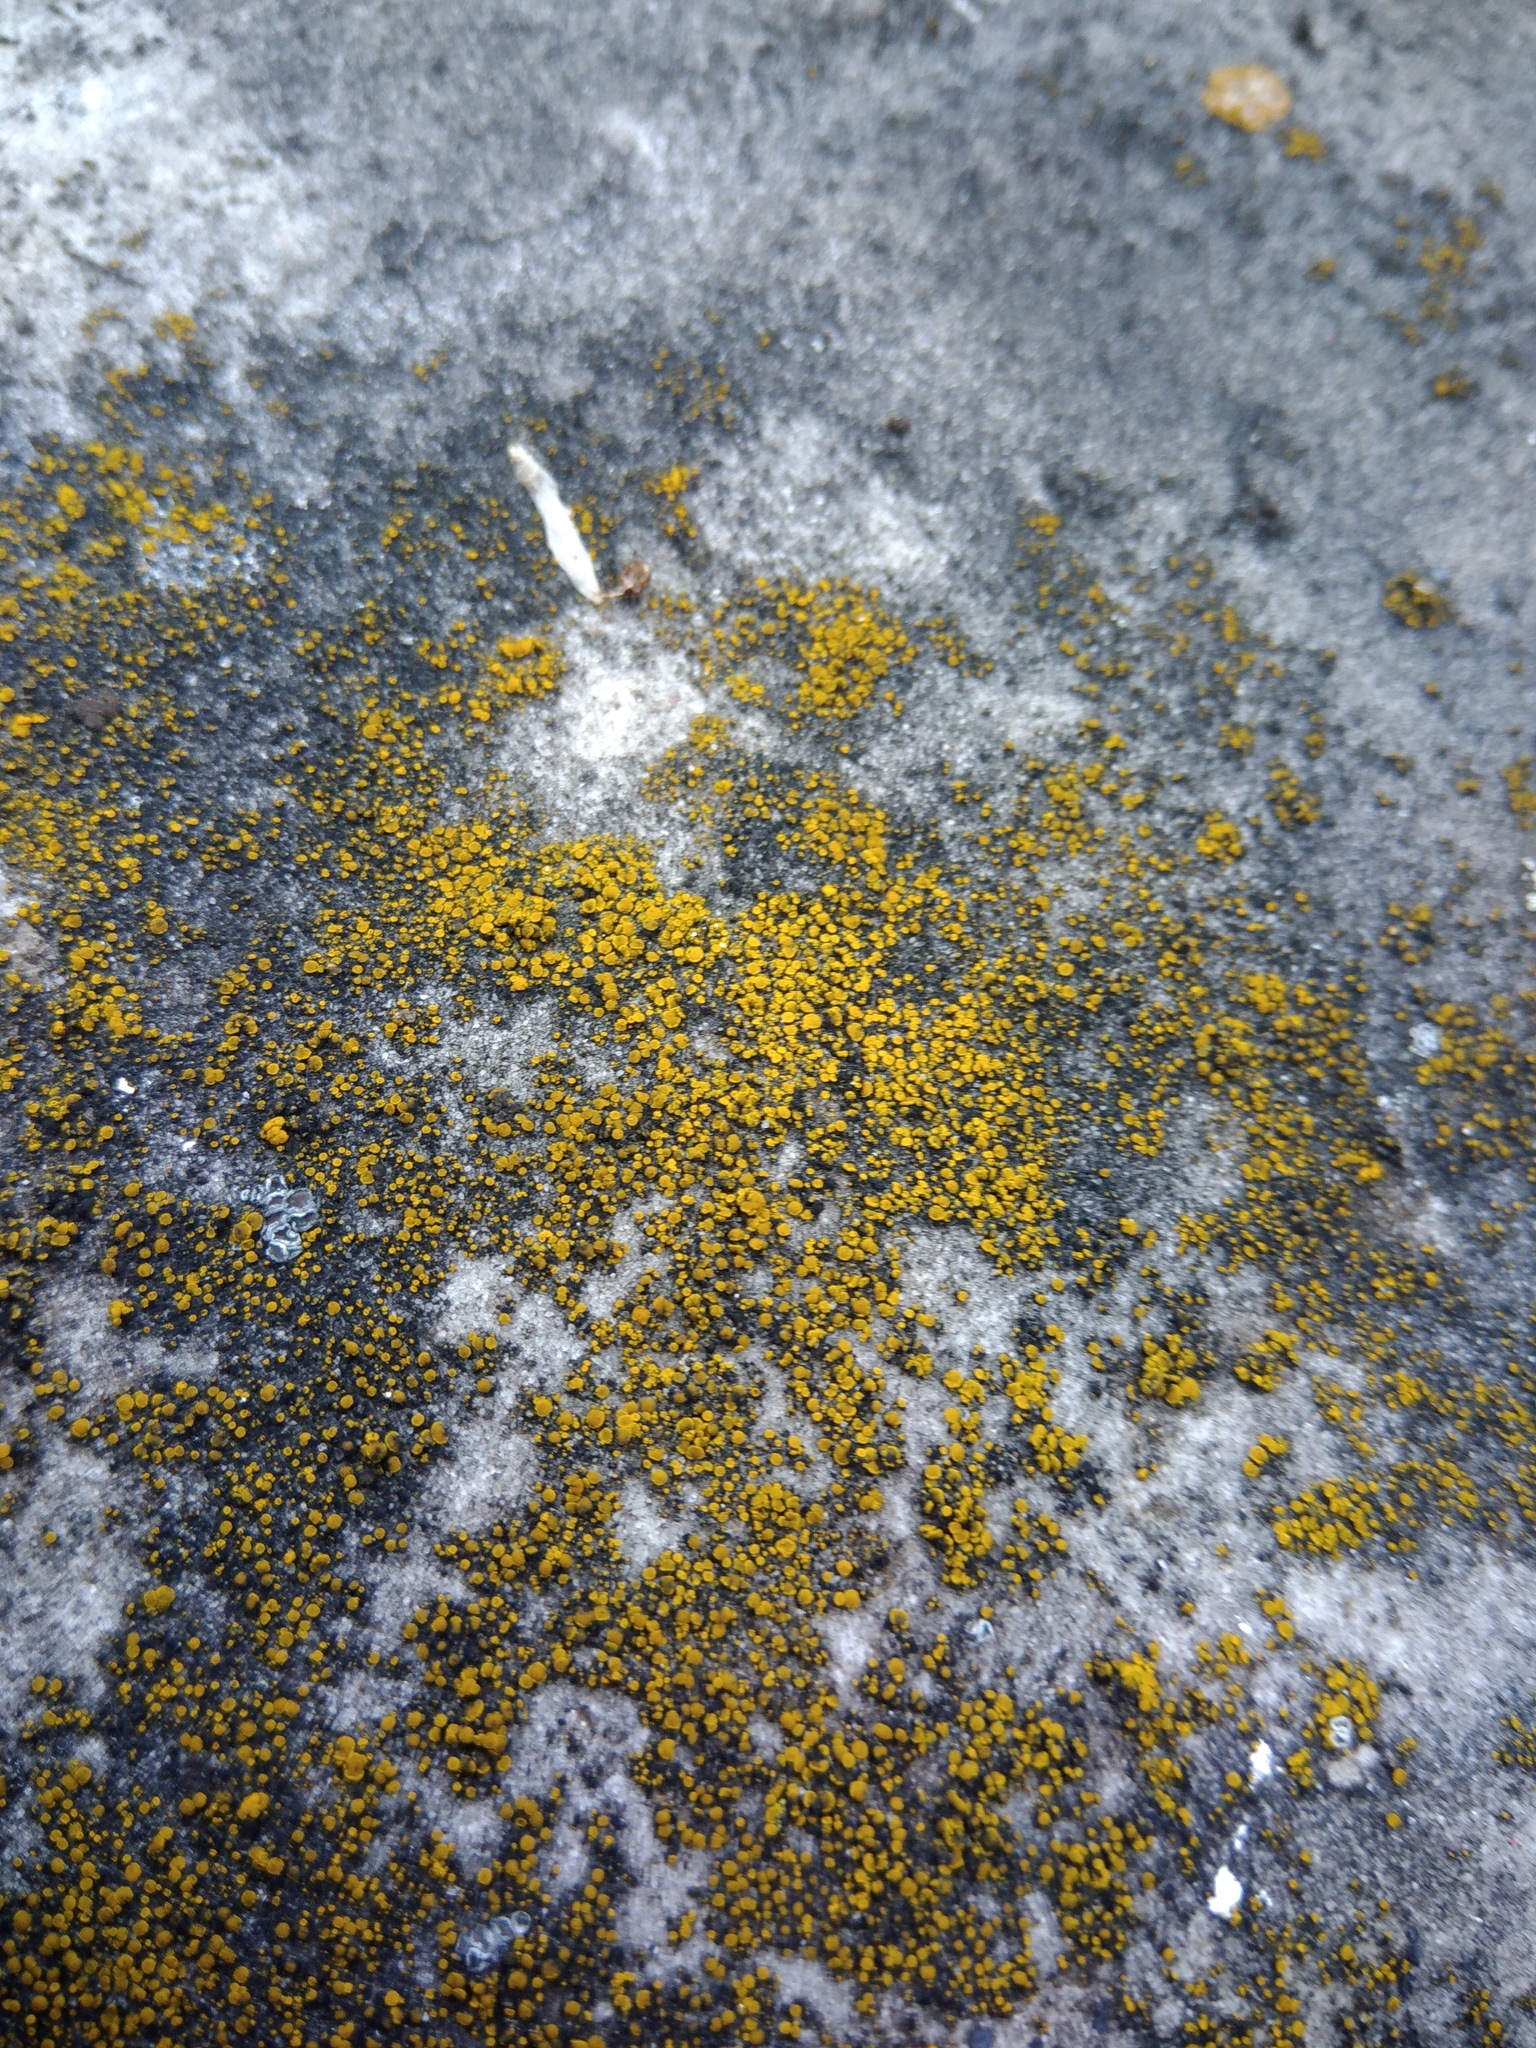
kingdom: Fungi
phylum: Ascomycota
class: Candelariomycetes
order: Candelariales
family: Candelariaceae
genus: Candelariella
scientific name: Candelariella aurella
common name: Hidden goldspeck lichen
